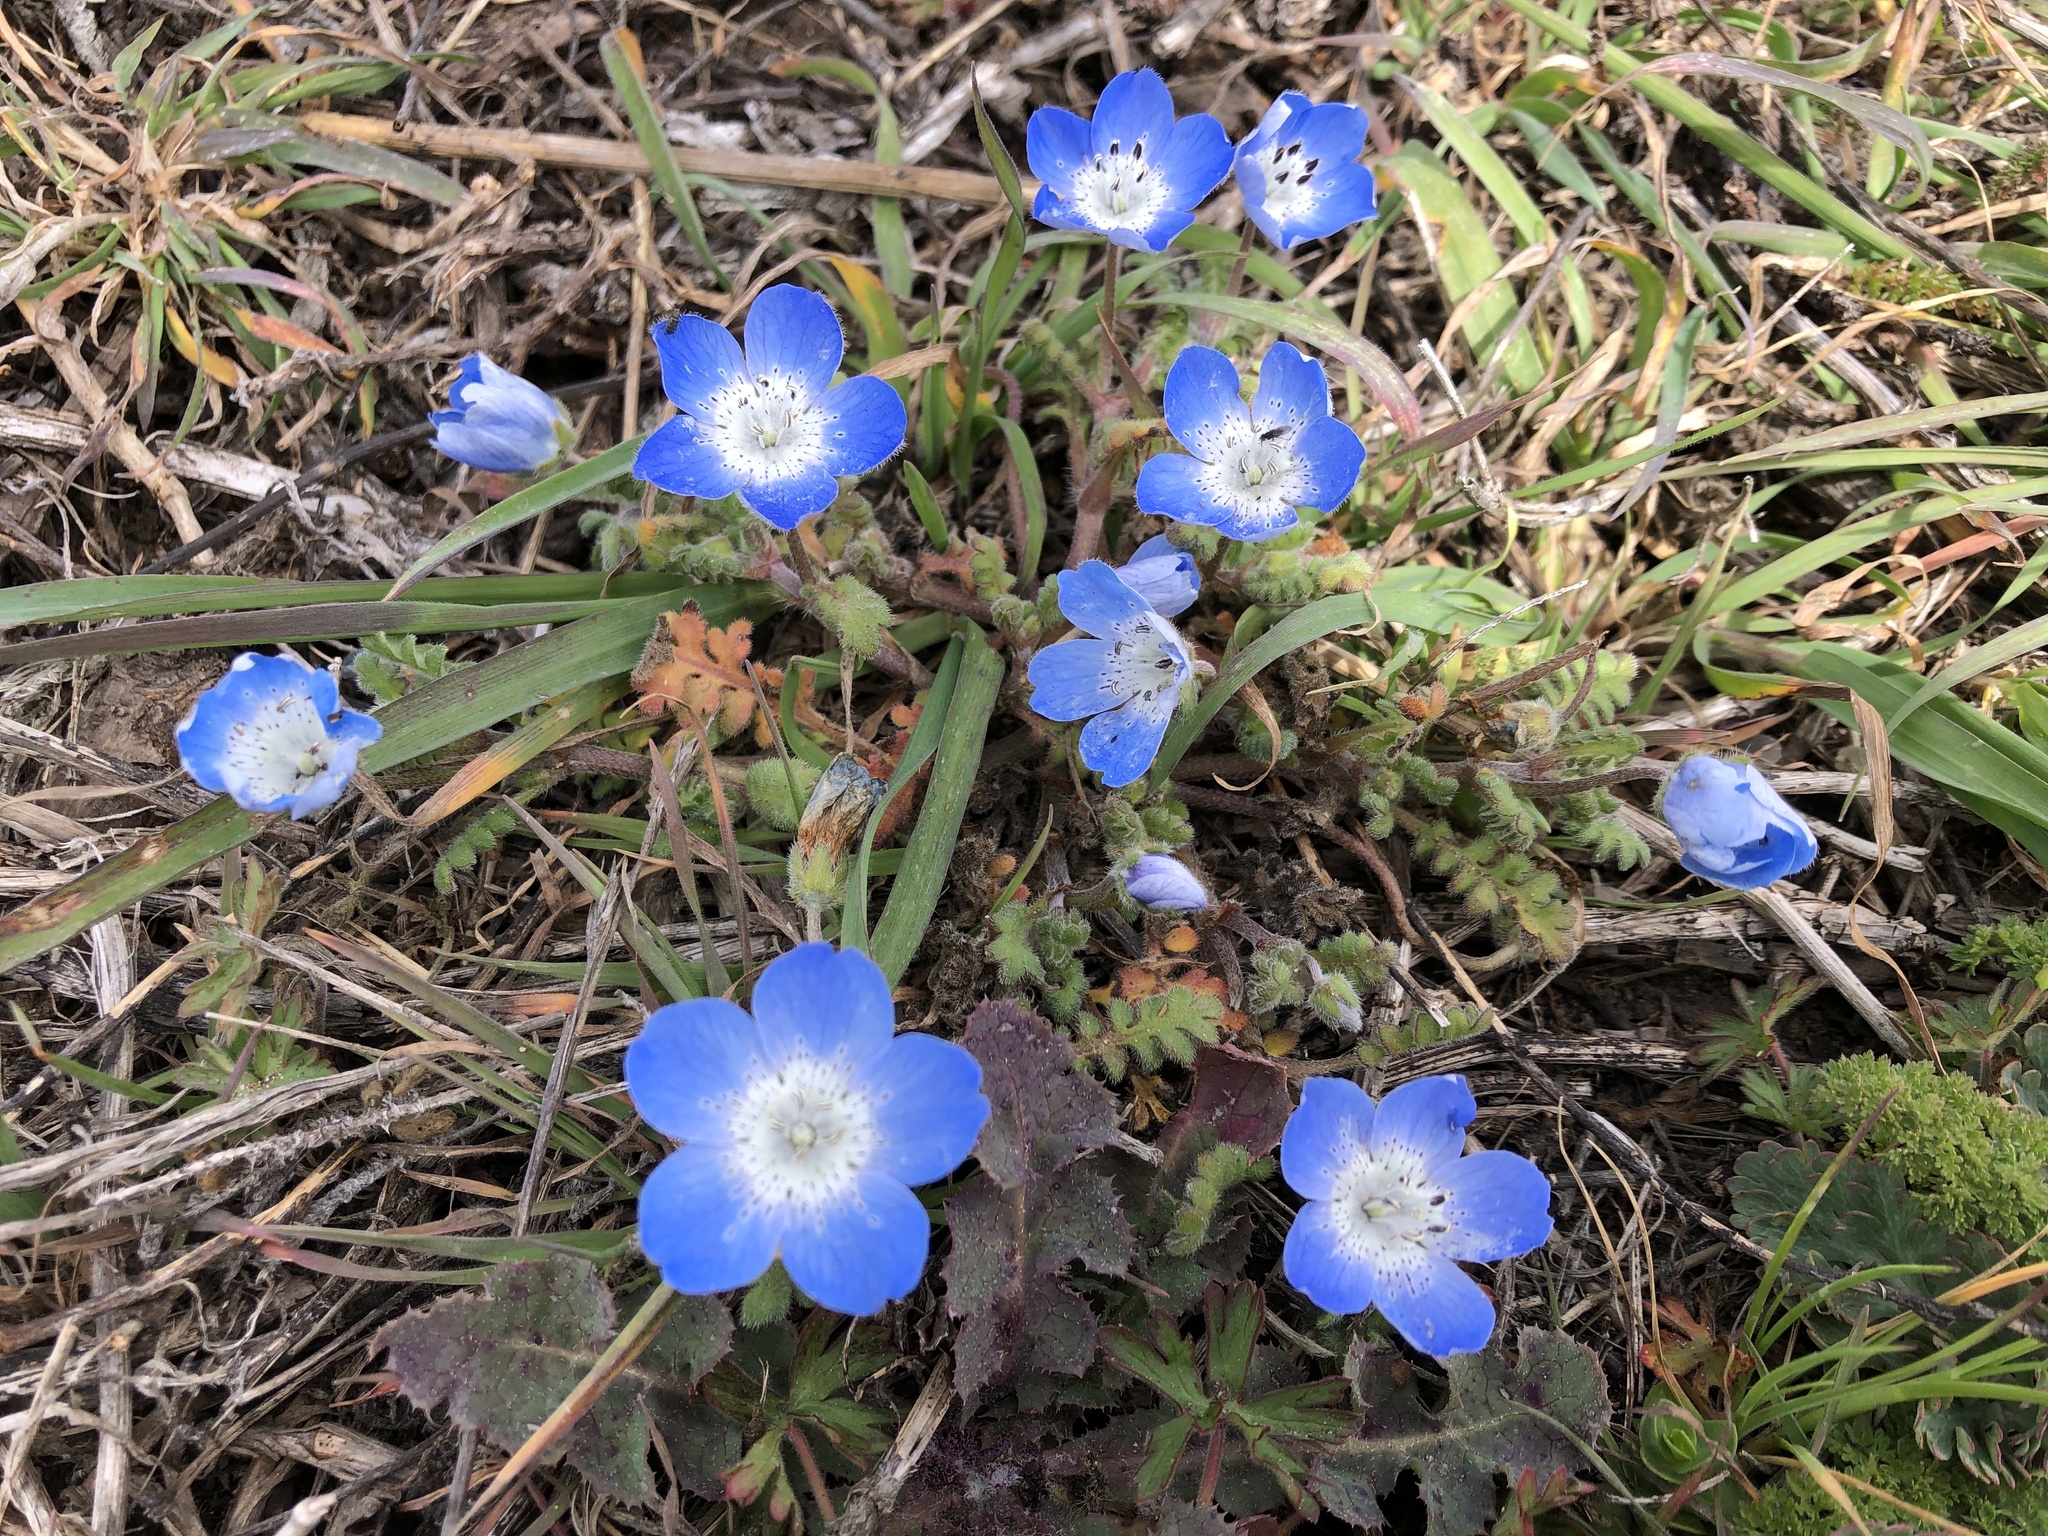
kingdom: Plantae
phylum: Tracheophyta
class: Magnoliopsida
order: Boraginales
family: Hydrophyllaceae
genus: Nemophila
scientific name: Nemophila menziesii
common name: Baby's-blue-eyes
